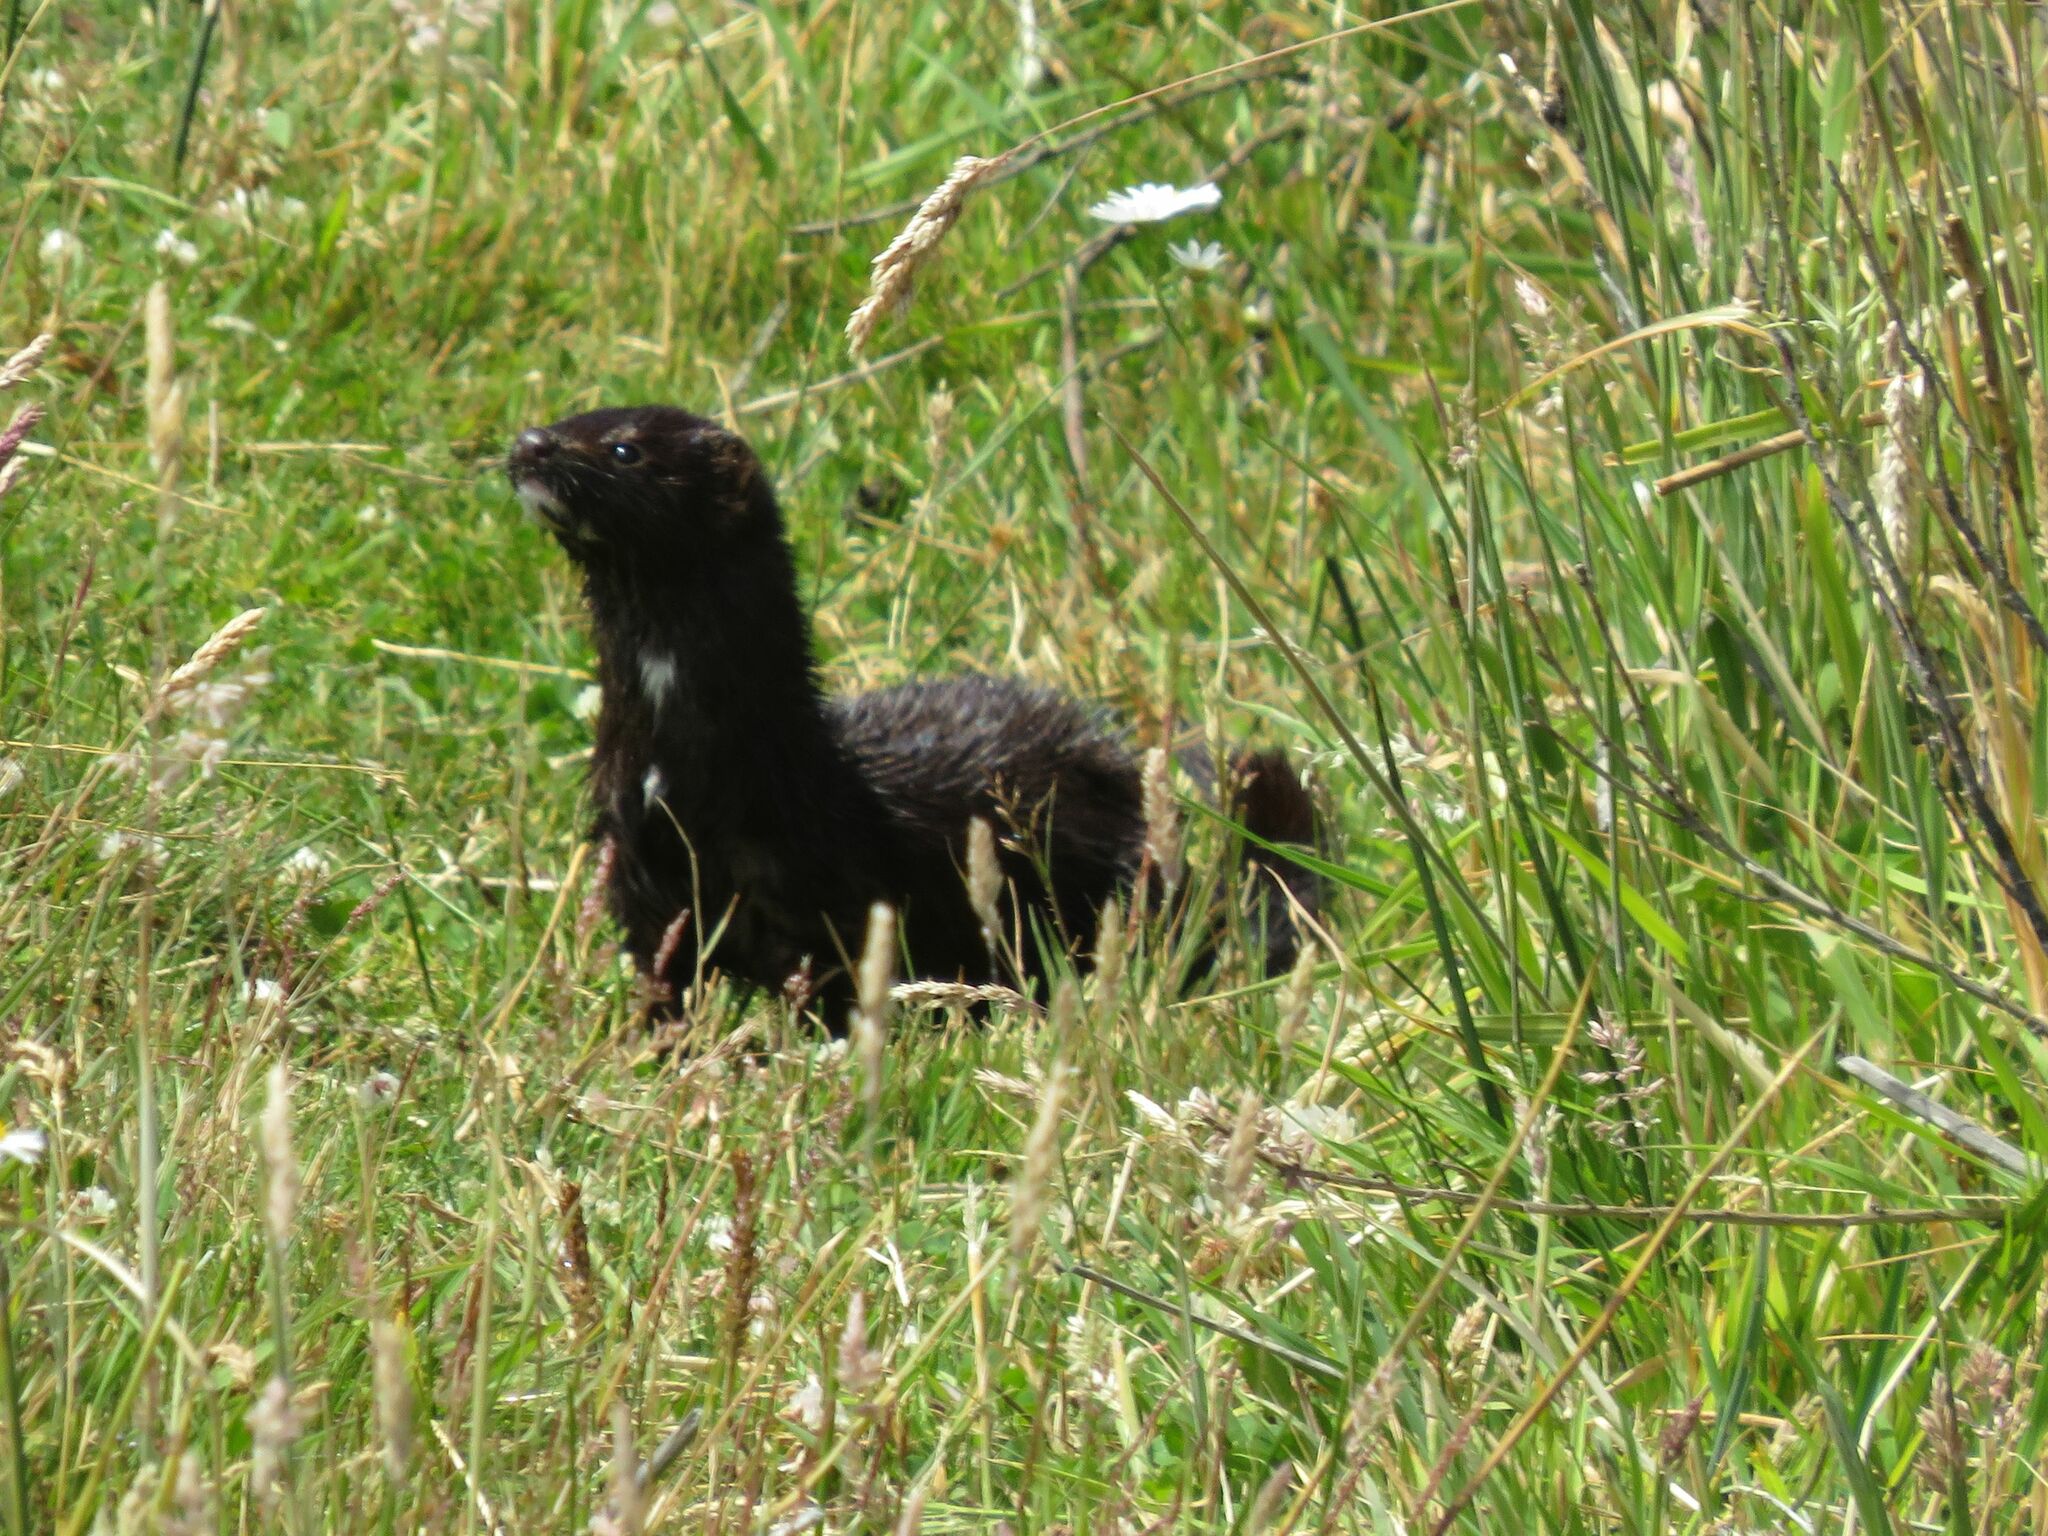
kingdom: Animalia
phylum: Chordata
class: Mammalia
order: Carnivora
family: Mustelidae
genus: Mustela
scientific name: Mustela
